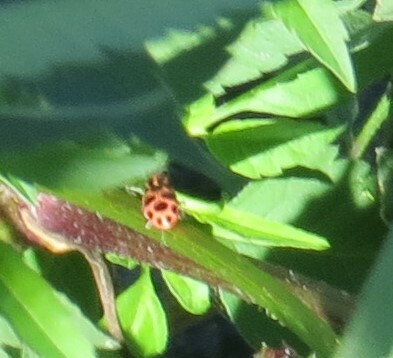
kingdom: Animalia
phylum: Arthropoda
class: Insecta
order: Coleoptera
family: Coccinellidae
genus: Coleomegilla
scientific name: Coleomegilla maculata
